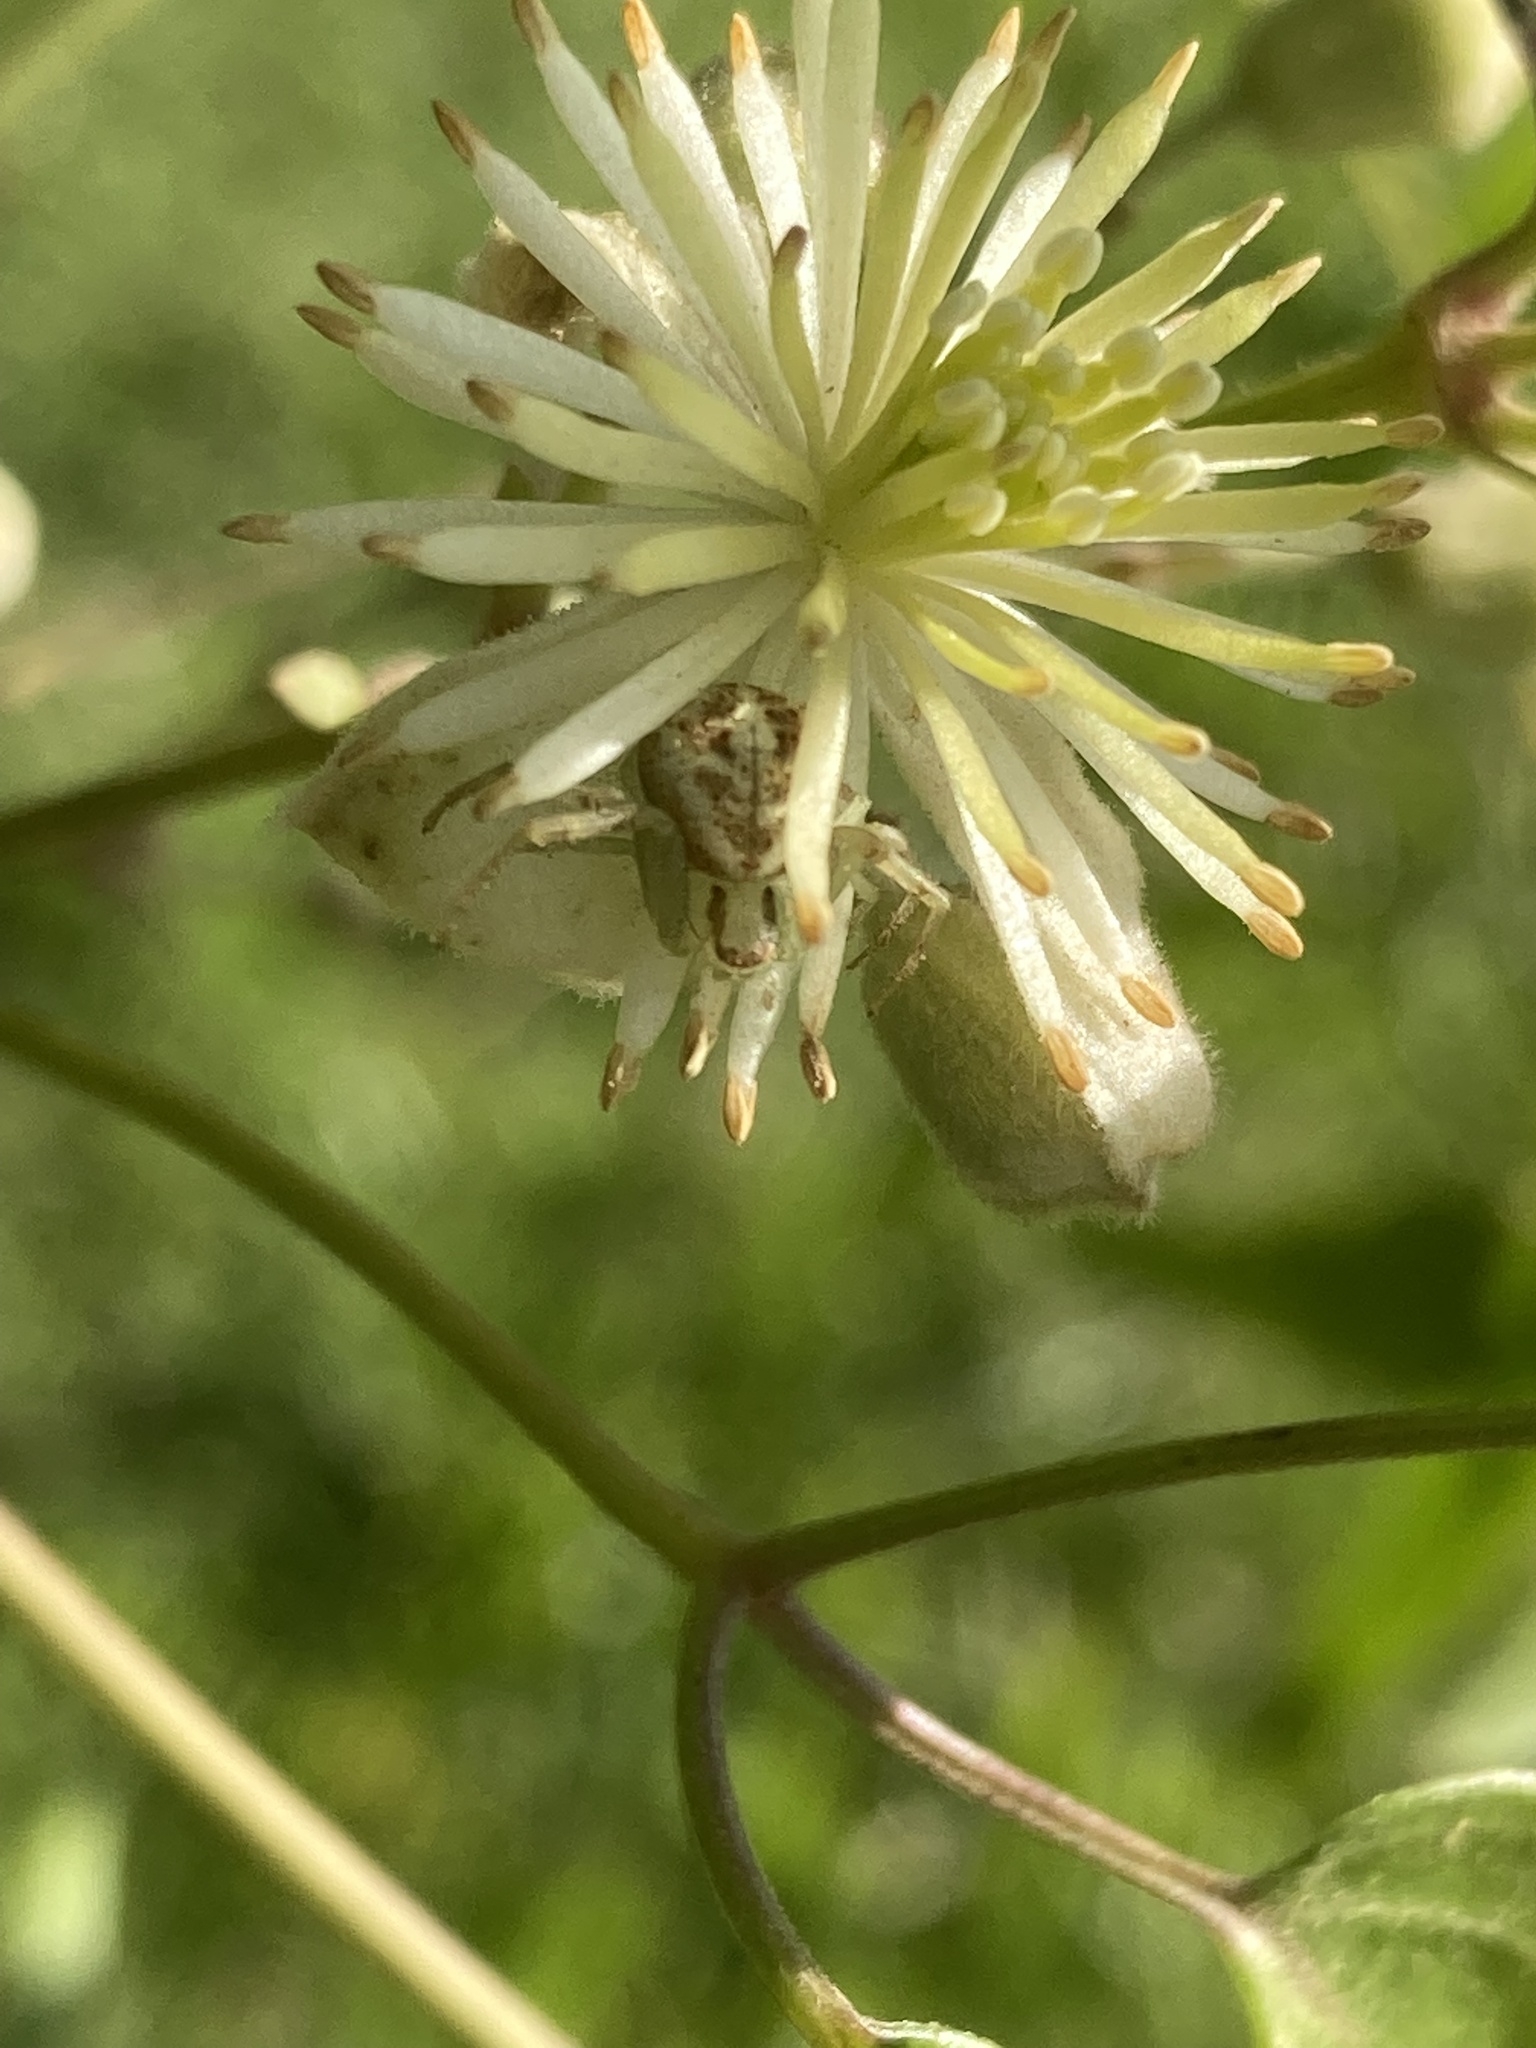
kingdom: Animalia
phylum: Arthropoda
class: Arachnida
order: Araneae
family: Thomisidae
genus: Misumenops
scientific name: Misumenops
